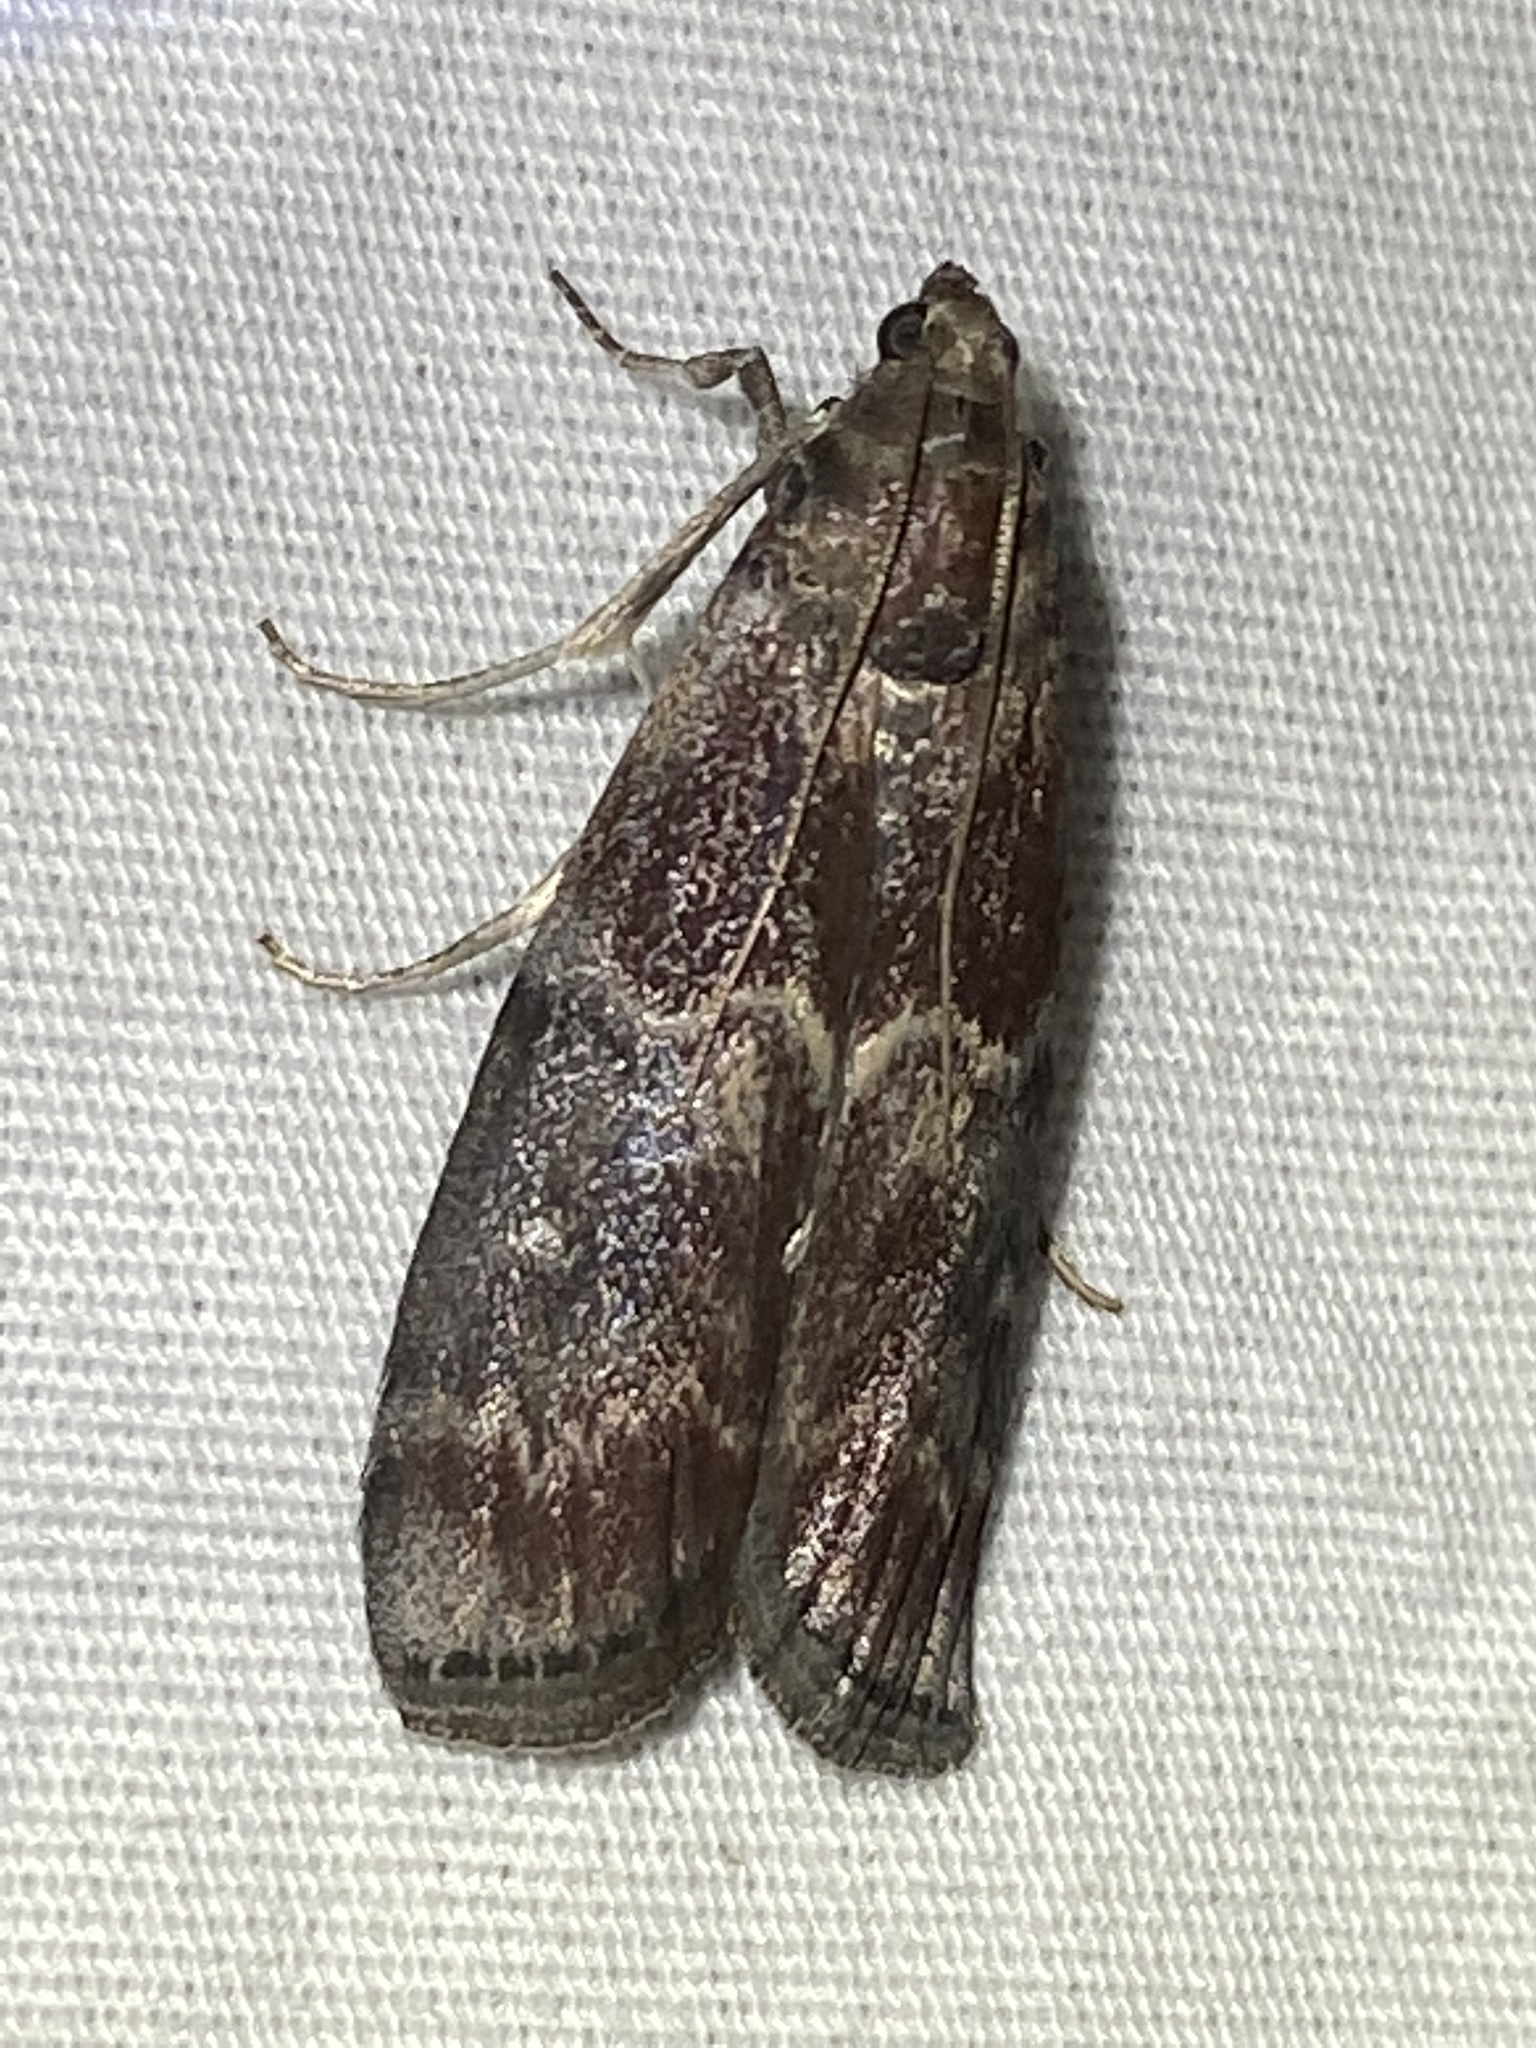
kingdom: Animalia
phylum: Arthropoda
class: Insecta
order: Lepidoptera
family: Pyralidae
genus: Euzophera
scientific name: Euzophera ostricolorella
